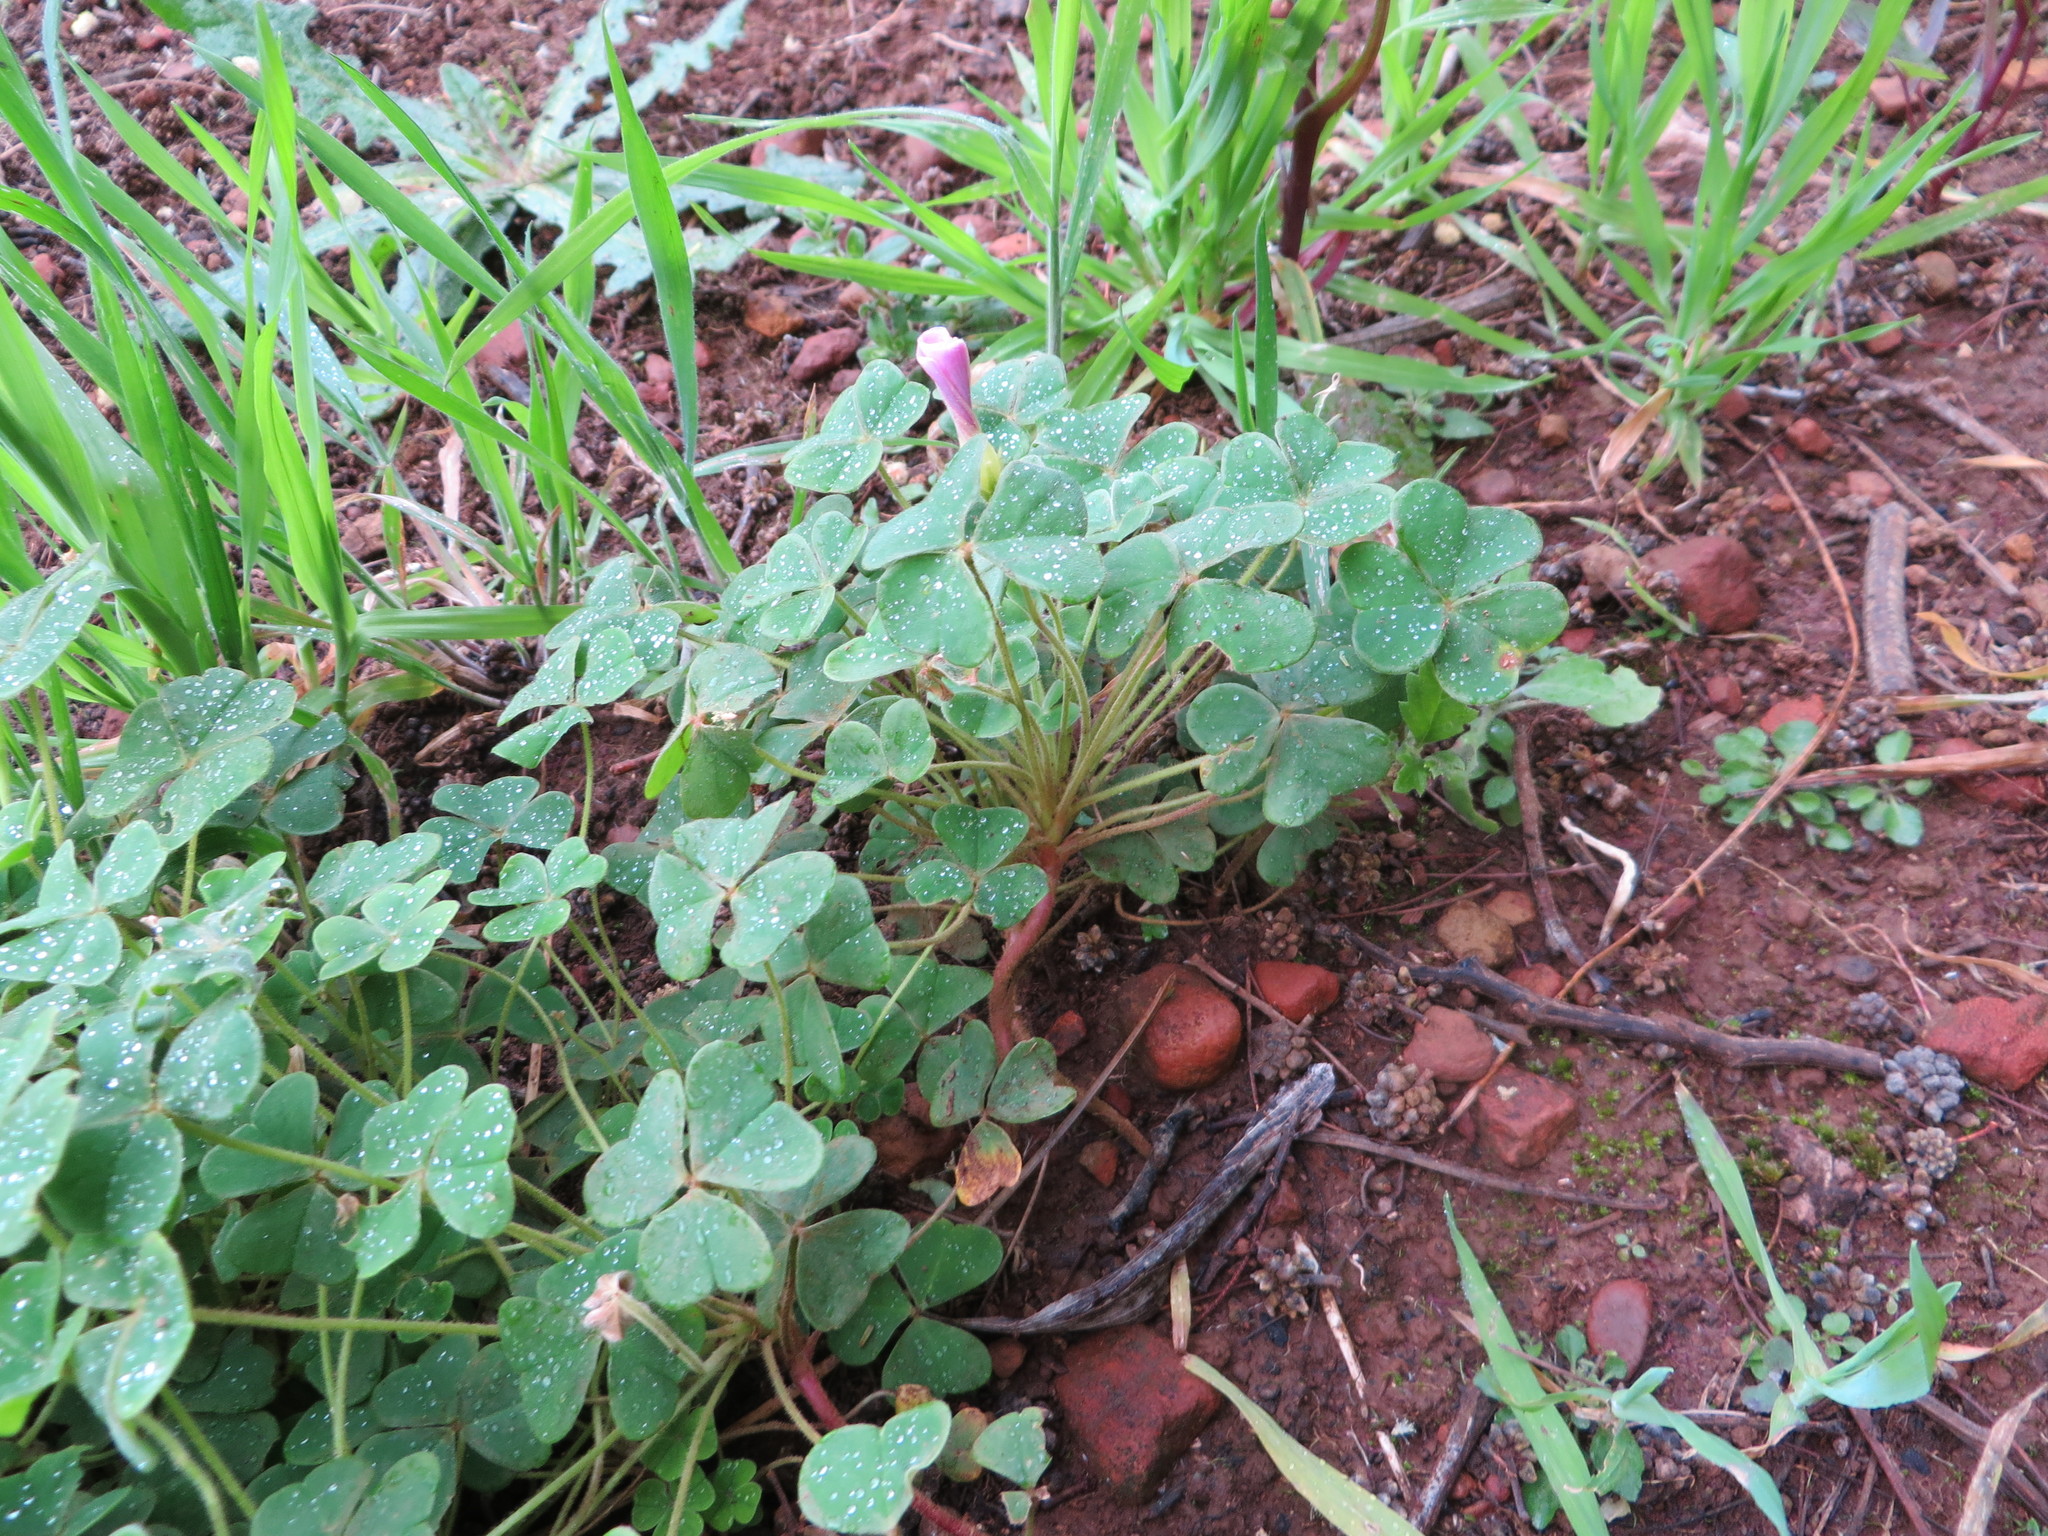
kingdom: Plantae
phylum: Tracheophyta
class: Magnoliopsida
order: Oxalidales
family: Oxalidaceae
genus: Oxalis
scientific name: Oxalis lanata
